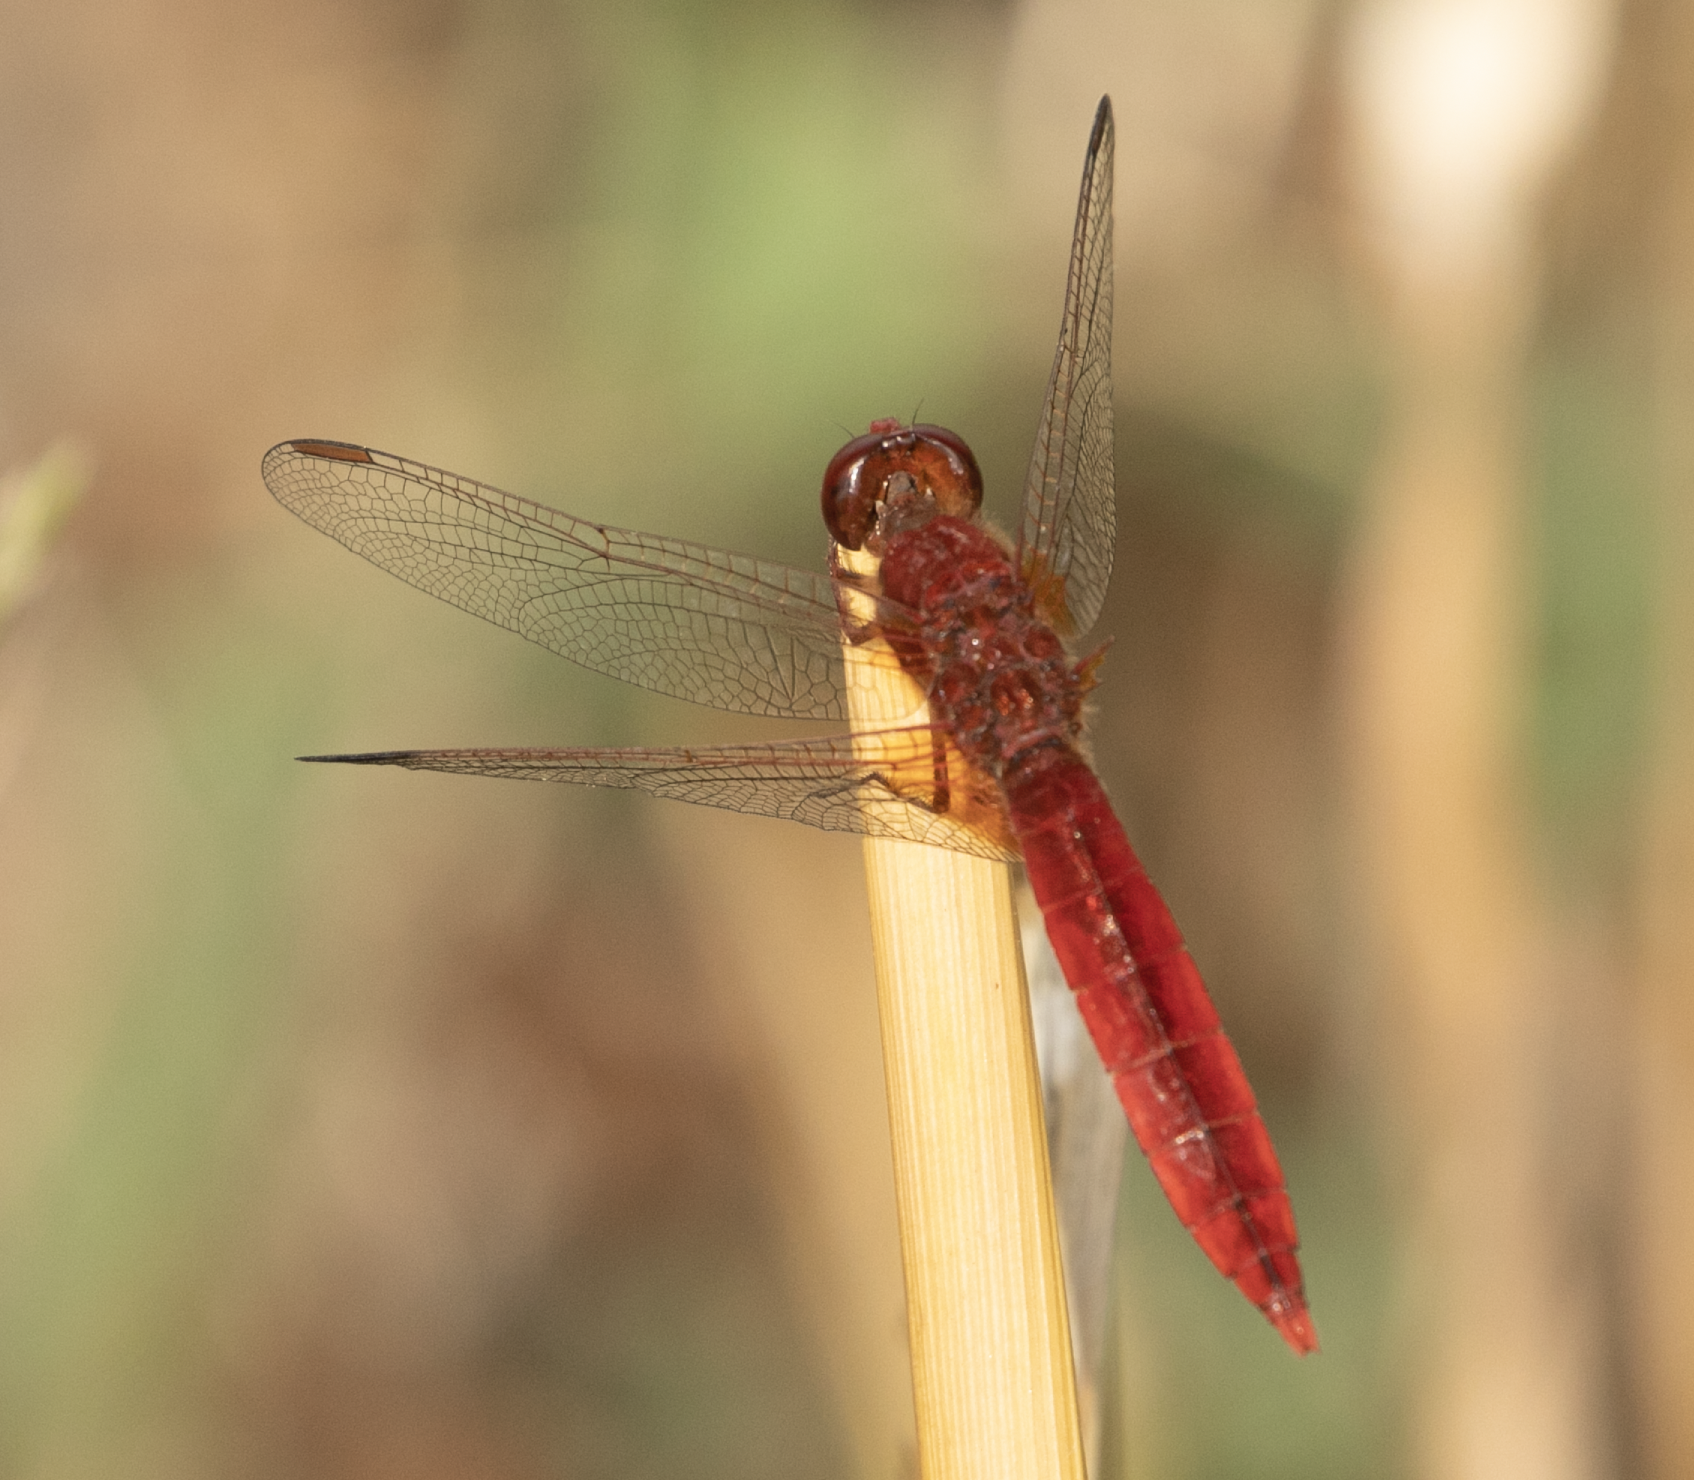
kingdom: Animalia
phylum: Arthropoda
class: Insecta
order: Odonata
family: Libellulidae
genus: Crocothemis
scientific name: Crocothemis erythraea
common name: Scarlet dragonfly
